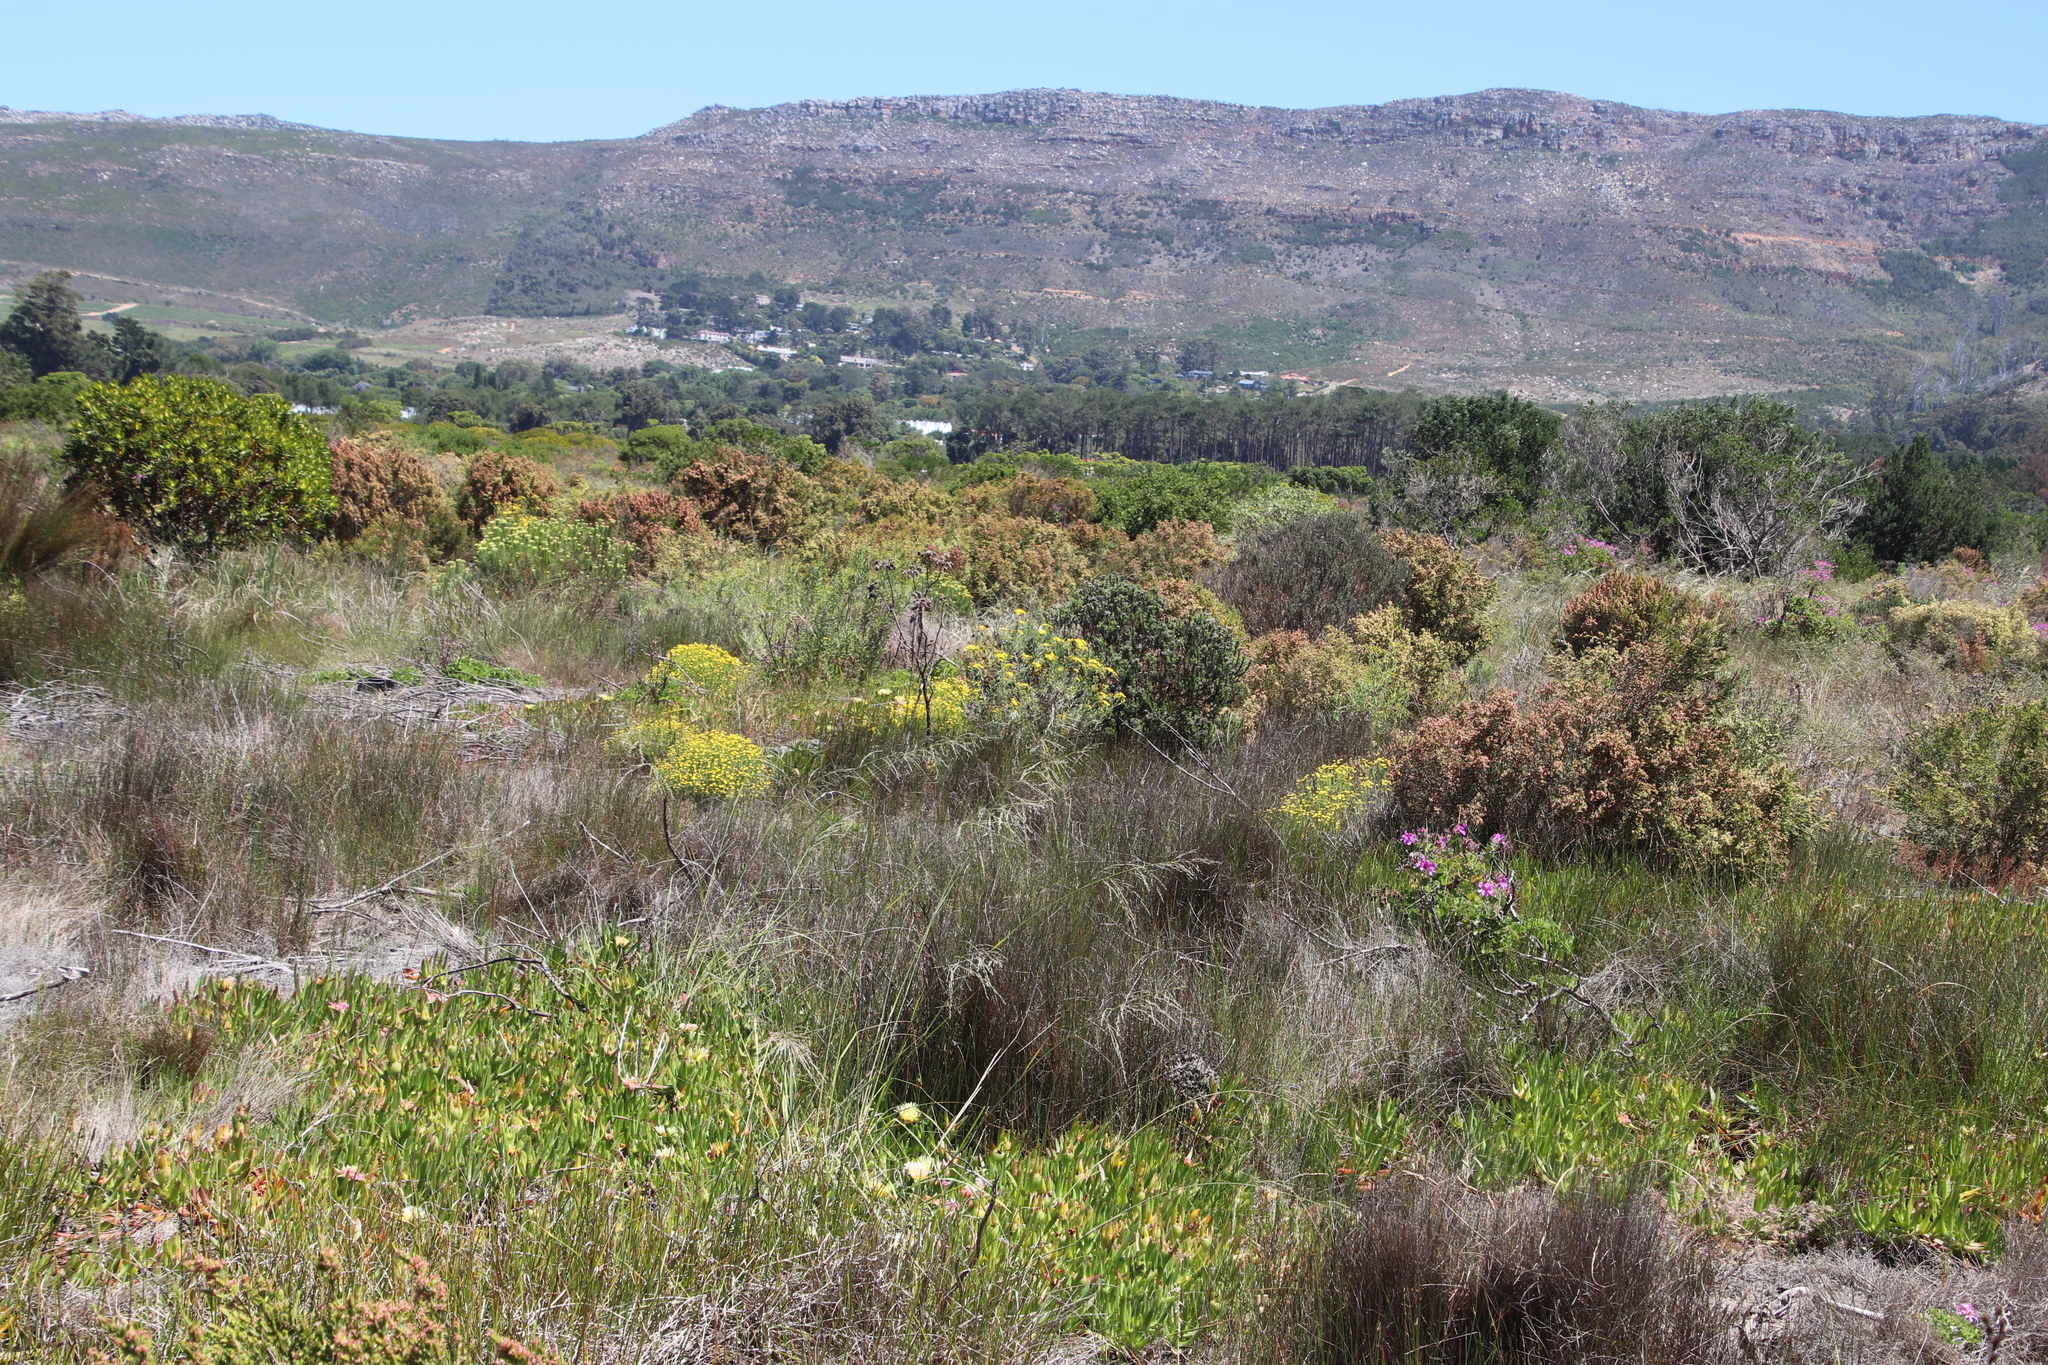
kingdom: Plantae
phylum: Tracheophyta
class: Liliopsida
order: Poales
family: Poaceae
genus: Eragrostis
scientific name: Eragrostis curvula
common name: African love-grass
